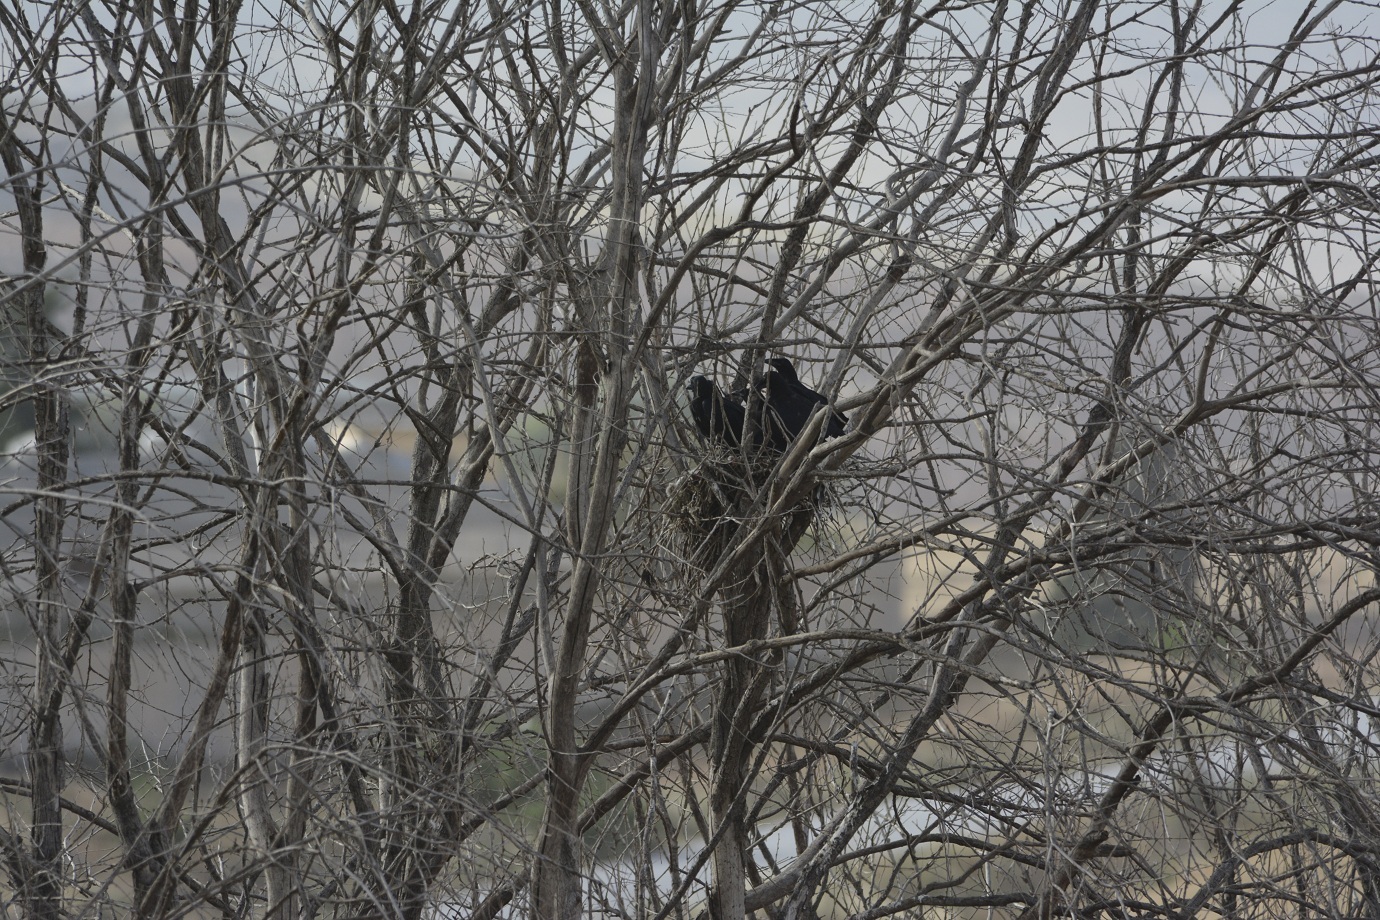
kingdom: Animalia
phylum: Chordata
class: Aves
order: Passeriformes
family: Corvidae
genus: Corvus
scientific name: Corvus corax
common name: Common raven
